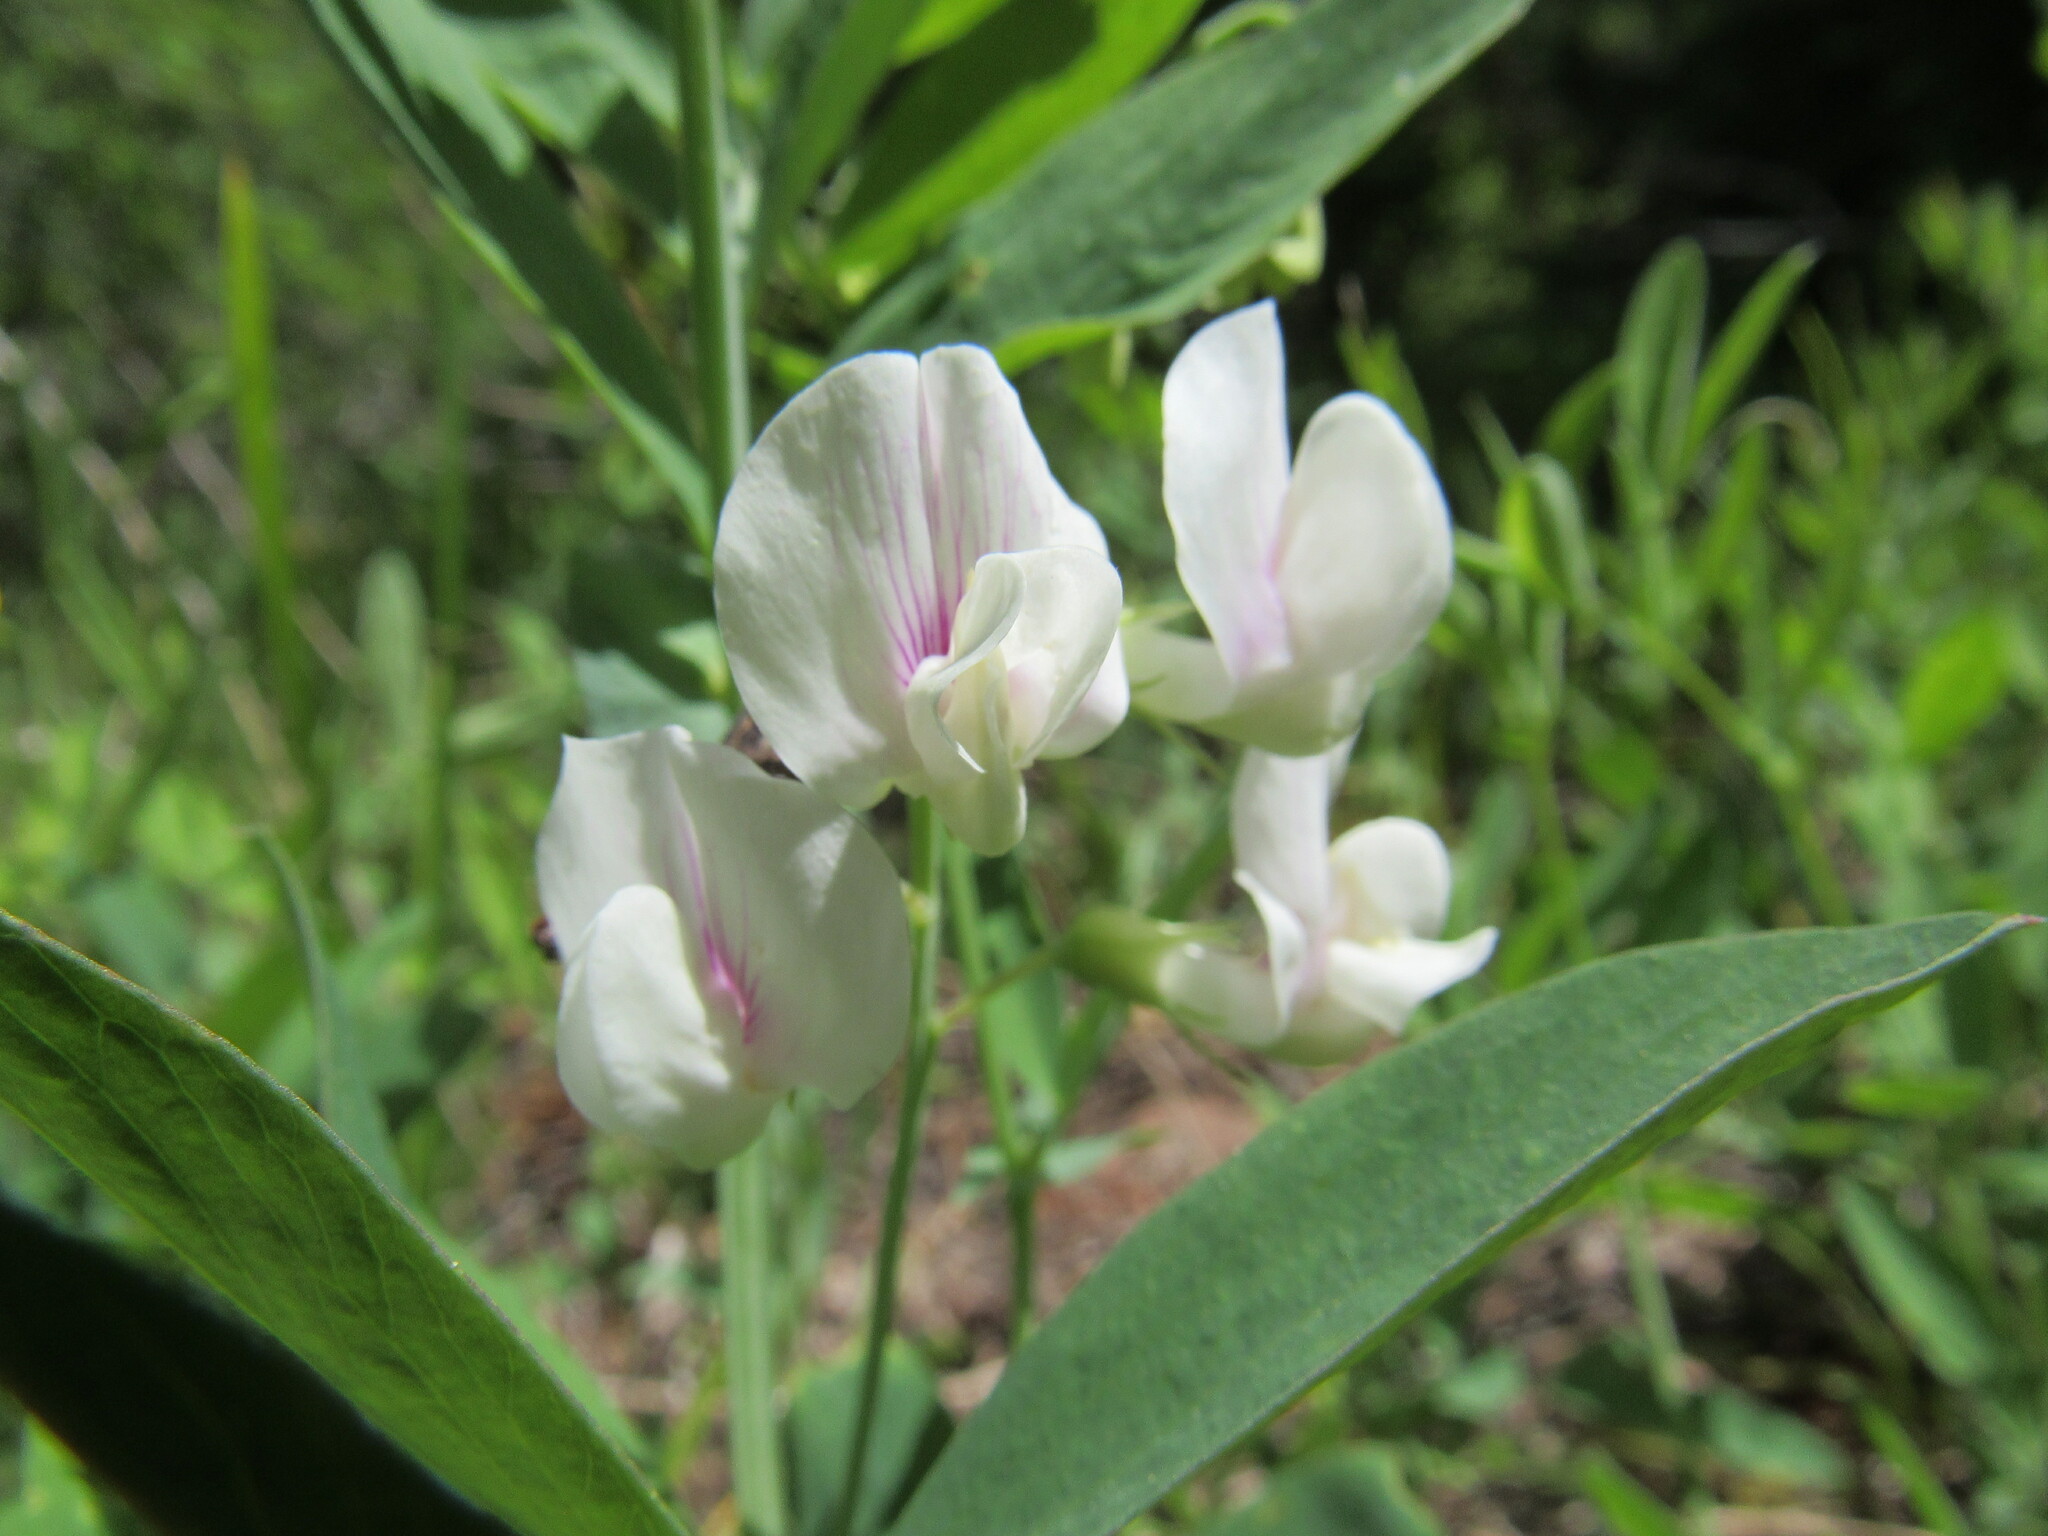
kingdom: Plantae
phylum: Tracheophyta
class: Magnoliopsida
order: Fabales
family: Fabaceae
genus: Lathyrus
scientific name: Lathyrus lanszwertii
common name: Lanszwert's vetchling
